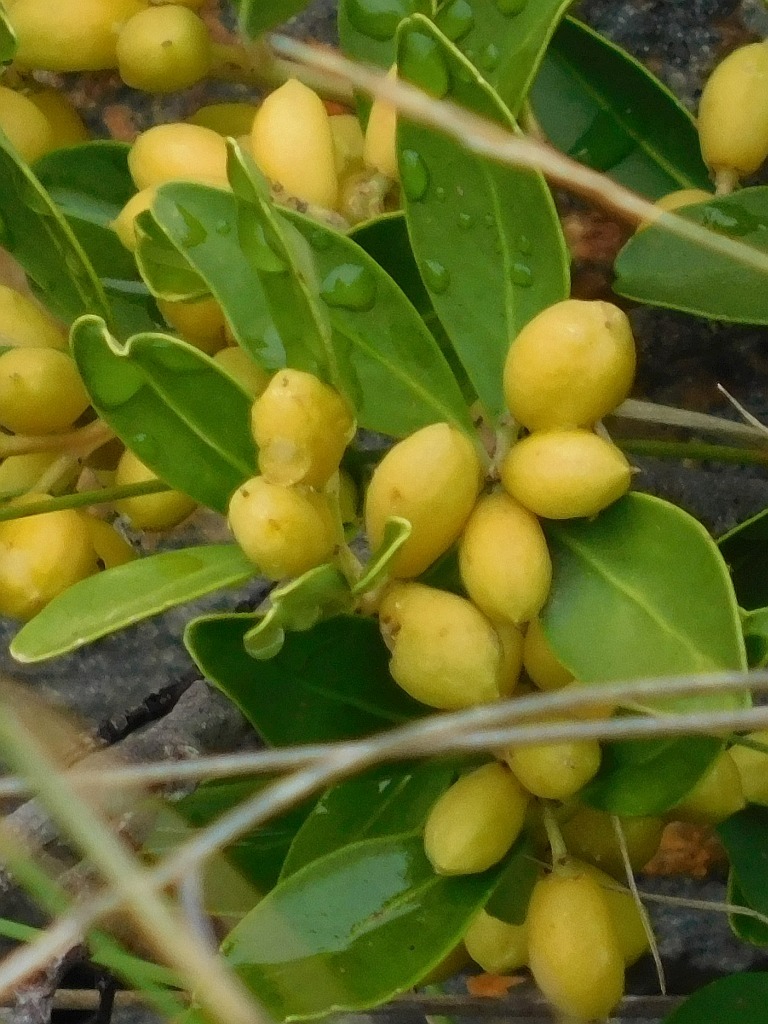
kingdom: Plantae
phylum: Tracheophyta
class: Magnoliopsida
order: Celastrales
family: Celastraceae
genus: Gymnosporia
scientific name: Gymnosporia laurina
